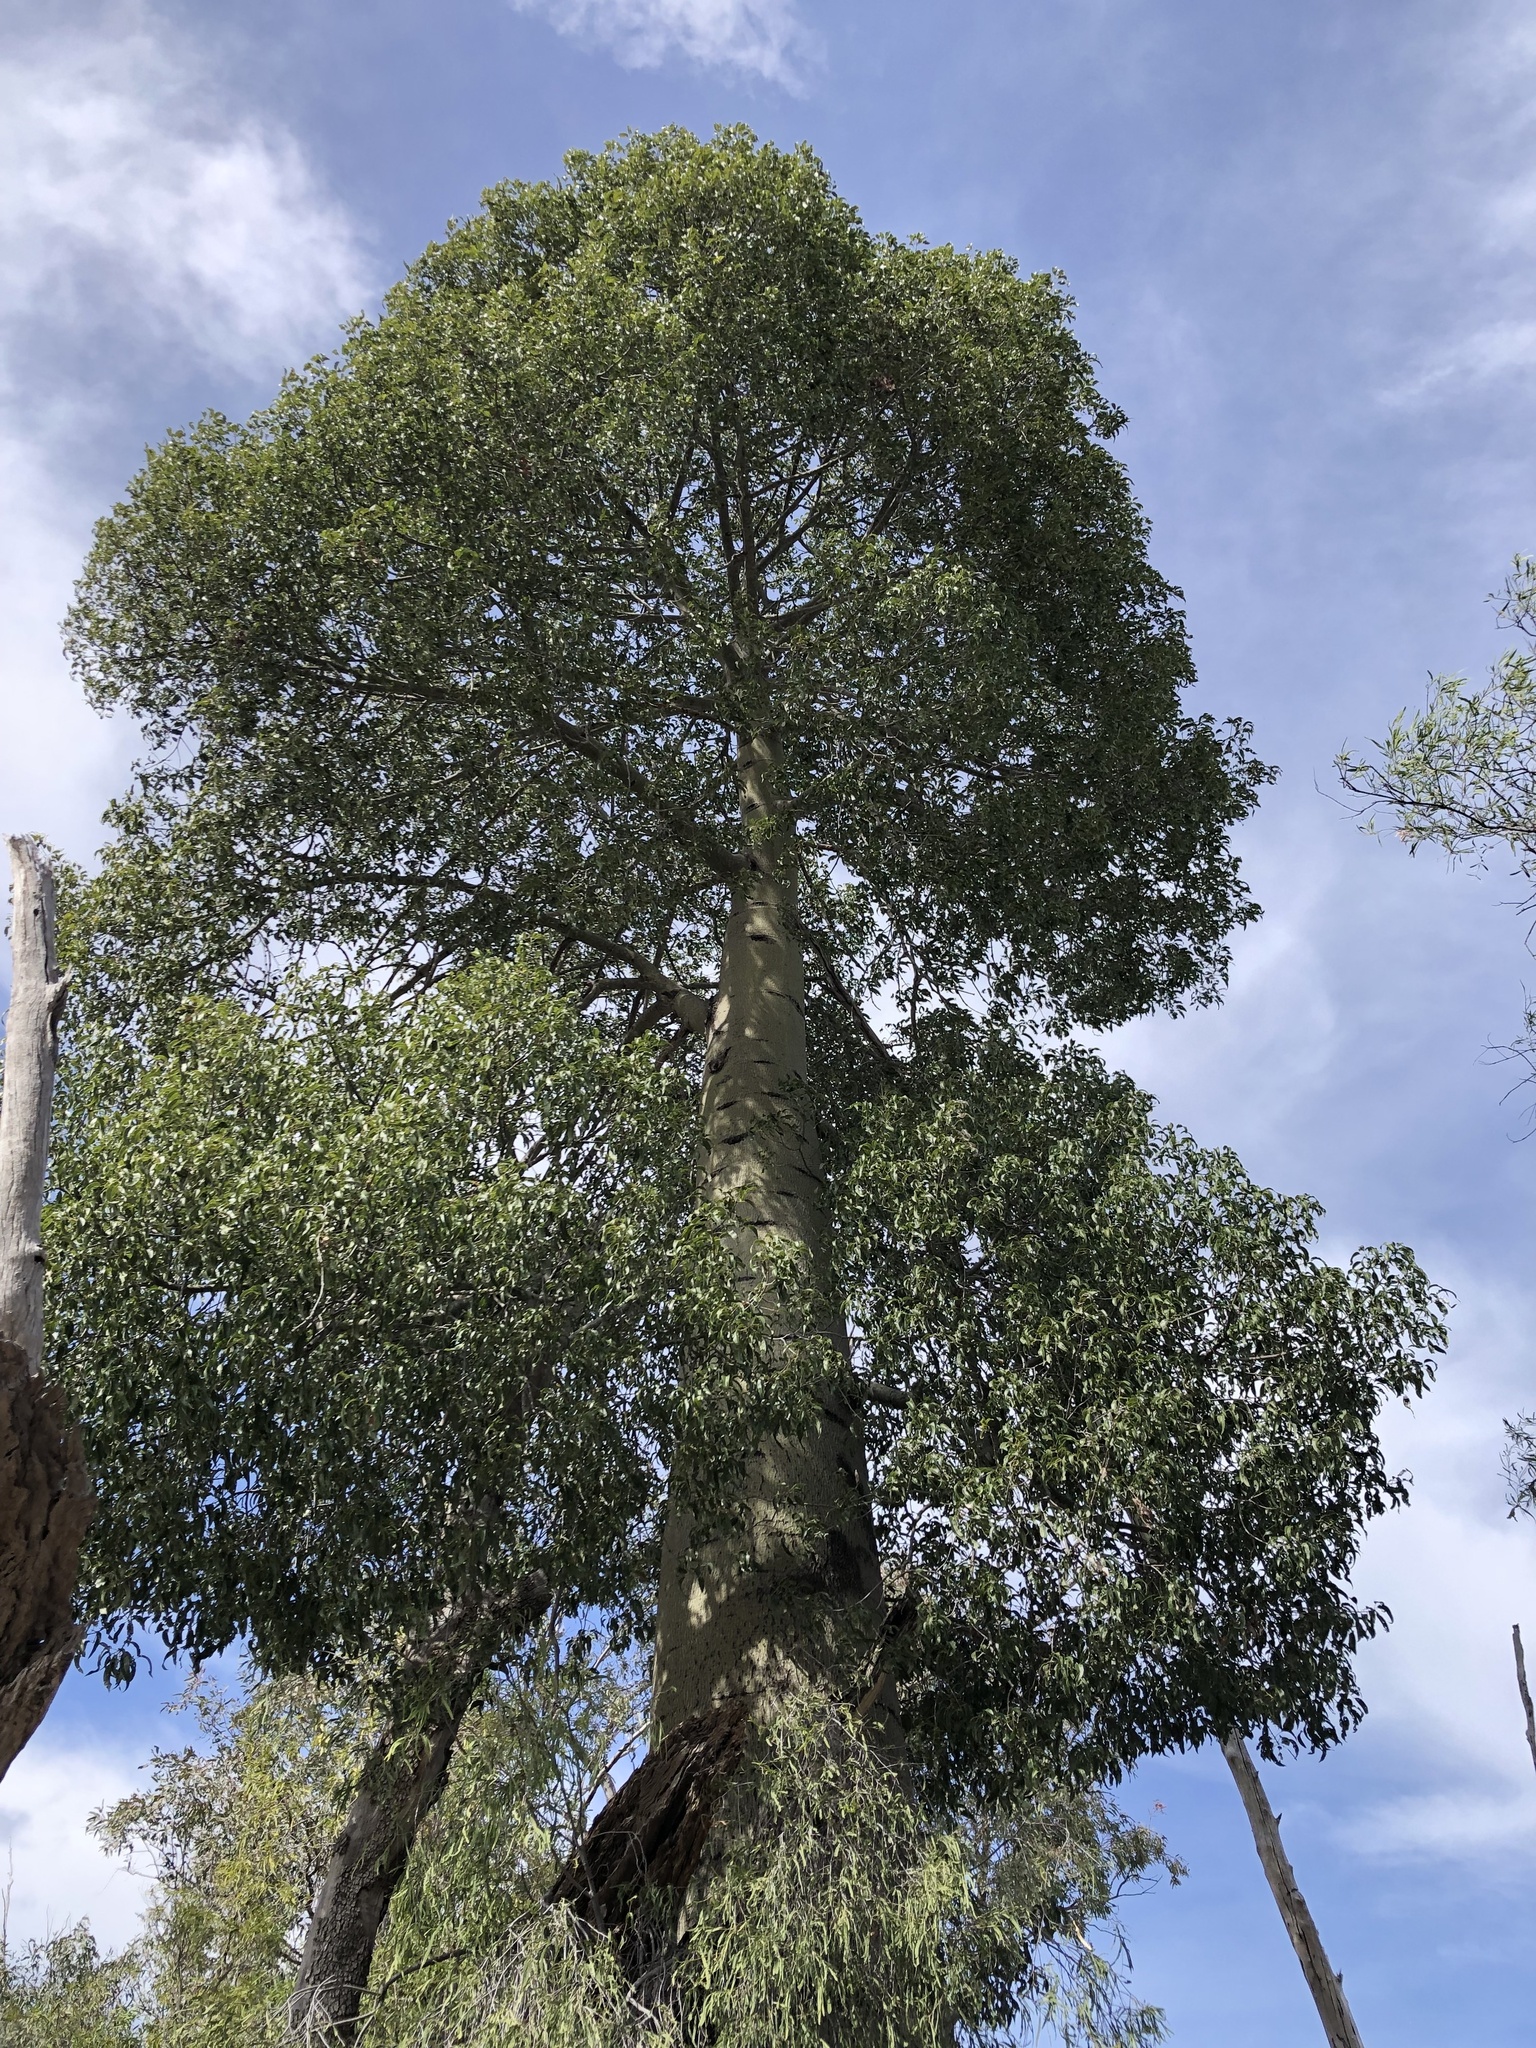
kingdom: Plantae
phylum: Tracheophyta
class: Magnoliopsida
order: Malvales
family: Malvaceae
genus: Brachychiton
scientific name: Brachychiton rupestris
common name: Queensland bottletree
